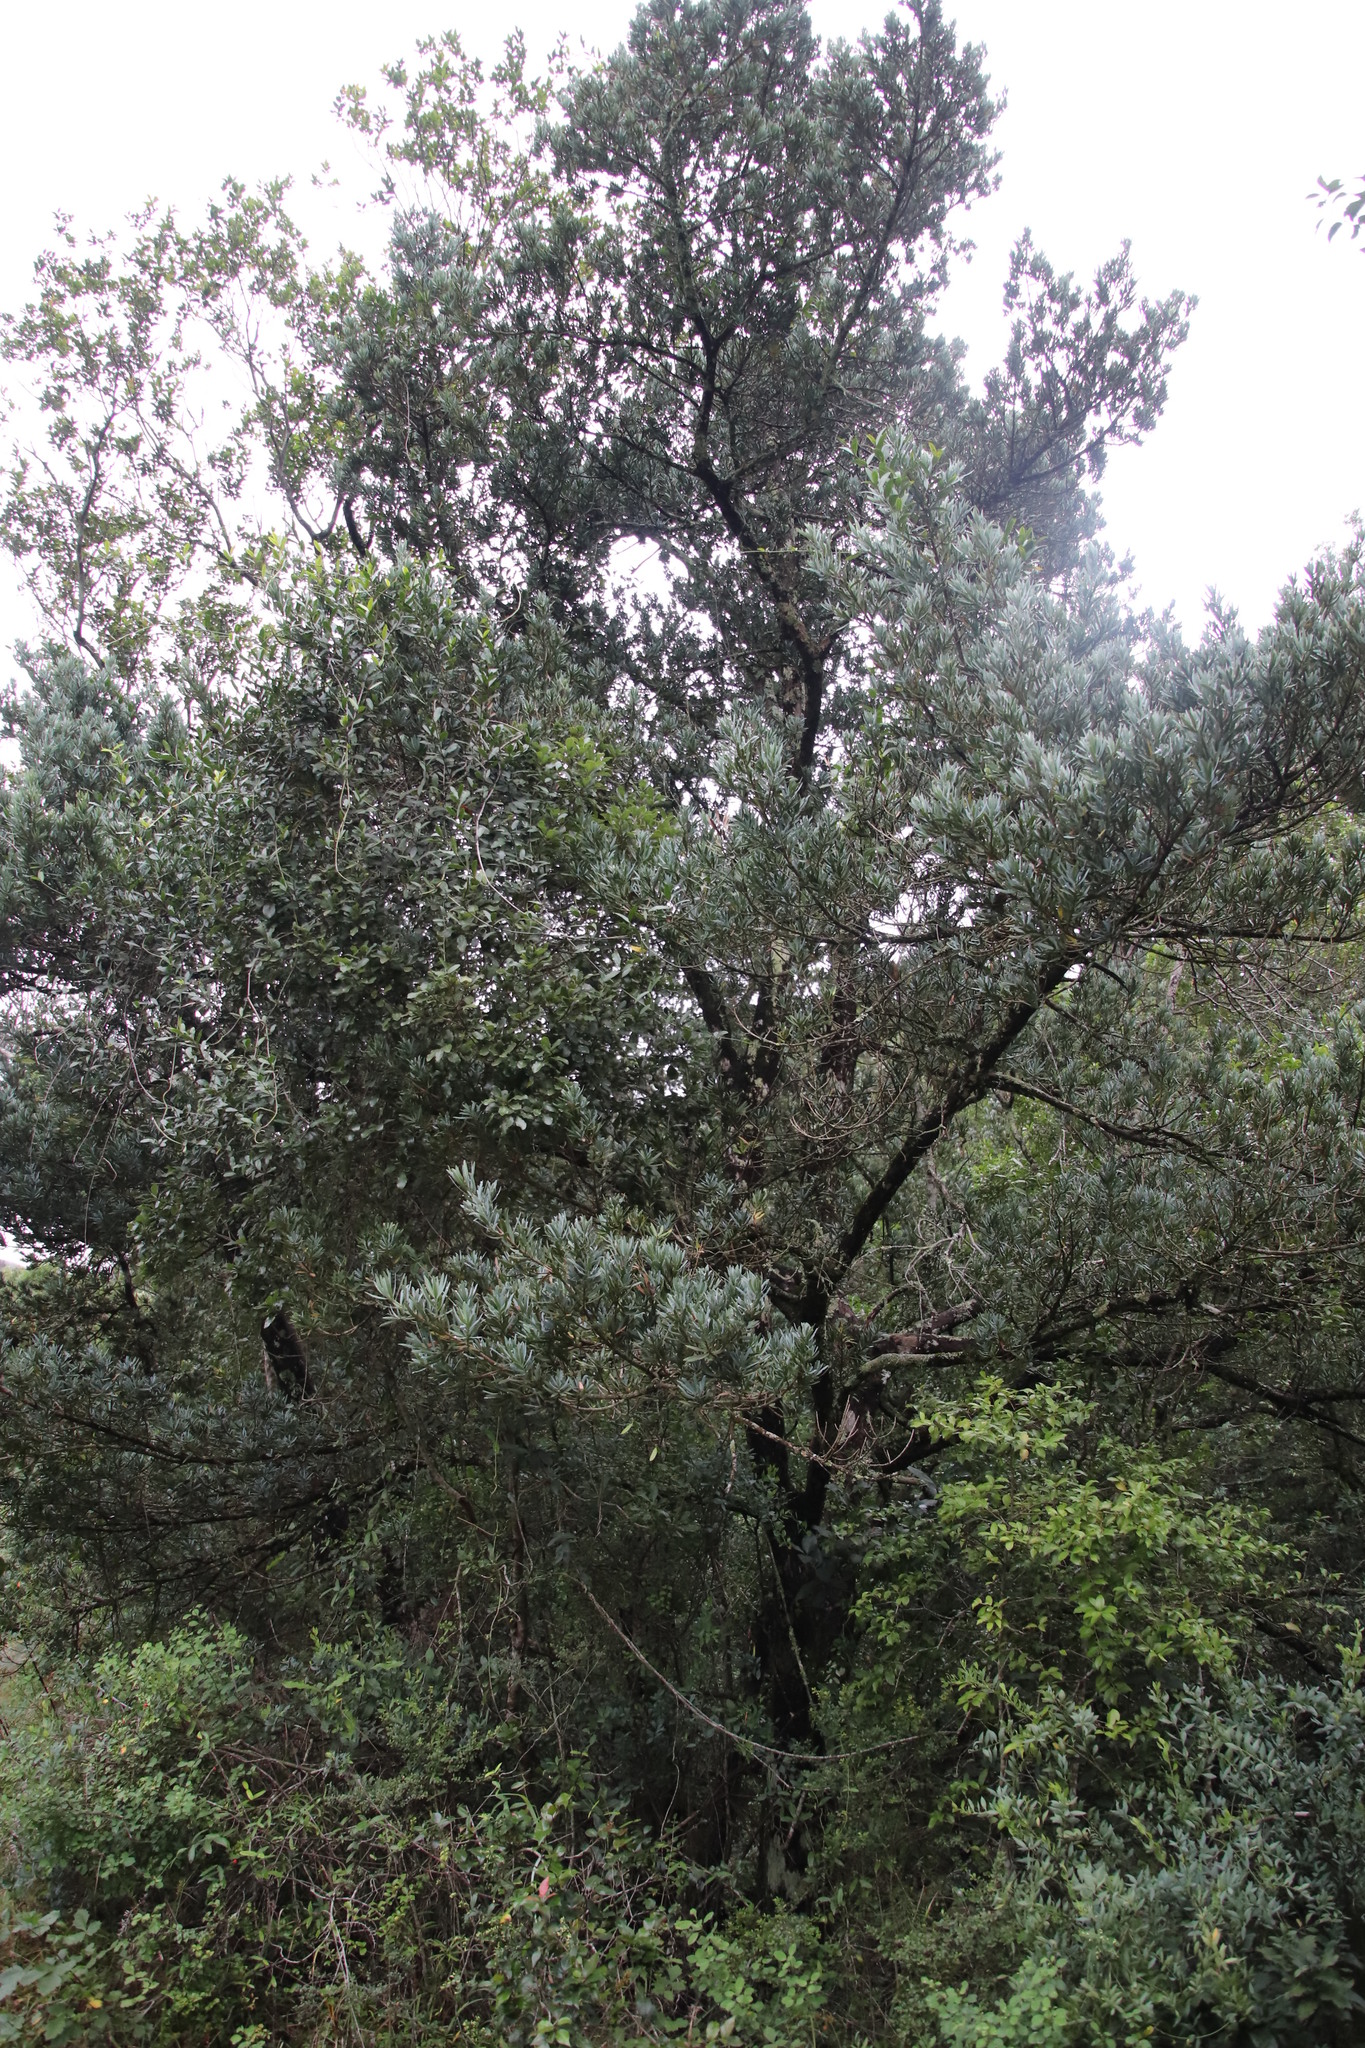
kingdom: Plantae
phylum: Tracheophyta
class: Pinopsida
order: Pinales
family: Podocarpaceae
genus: Podocarpus
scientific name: Podocarpus latifolius
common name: True yellowwood
